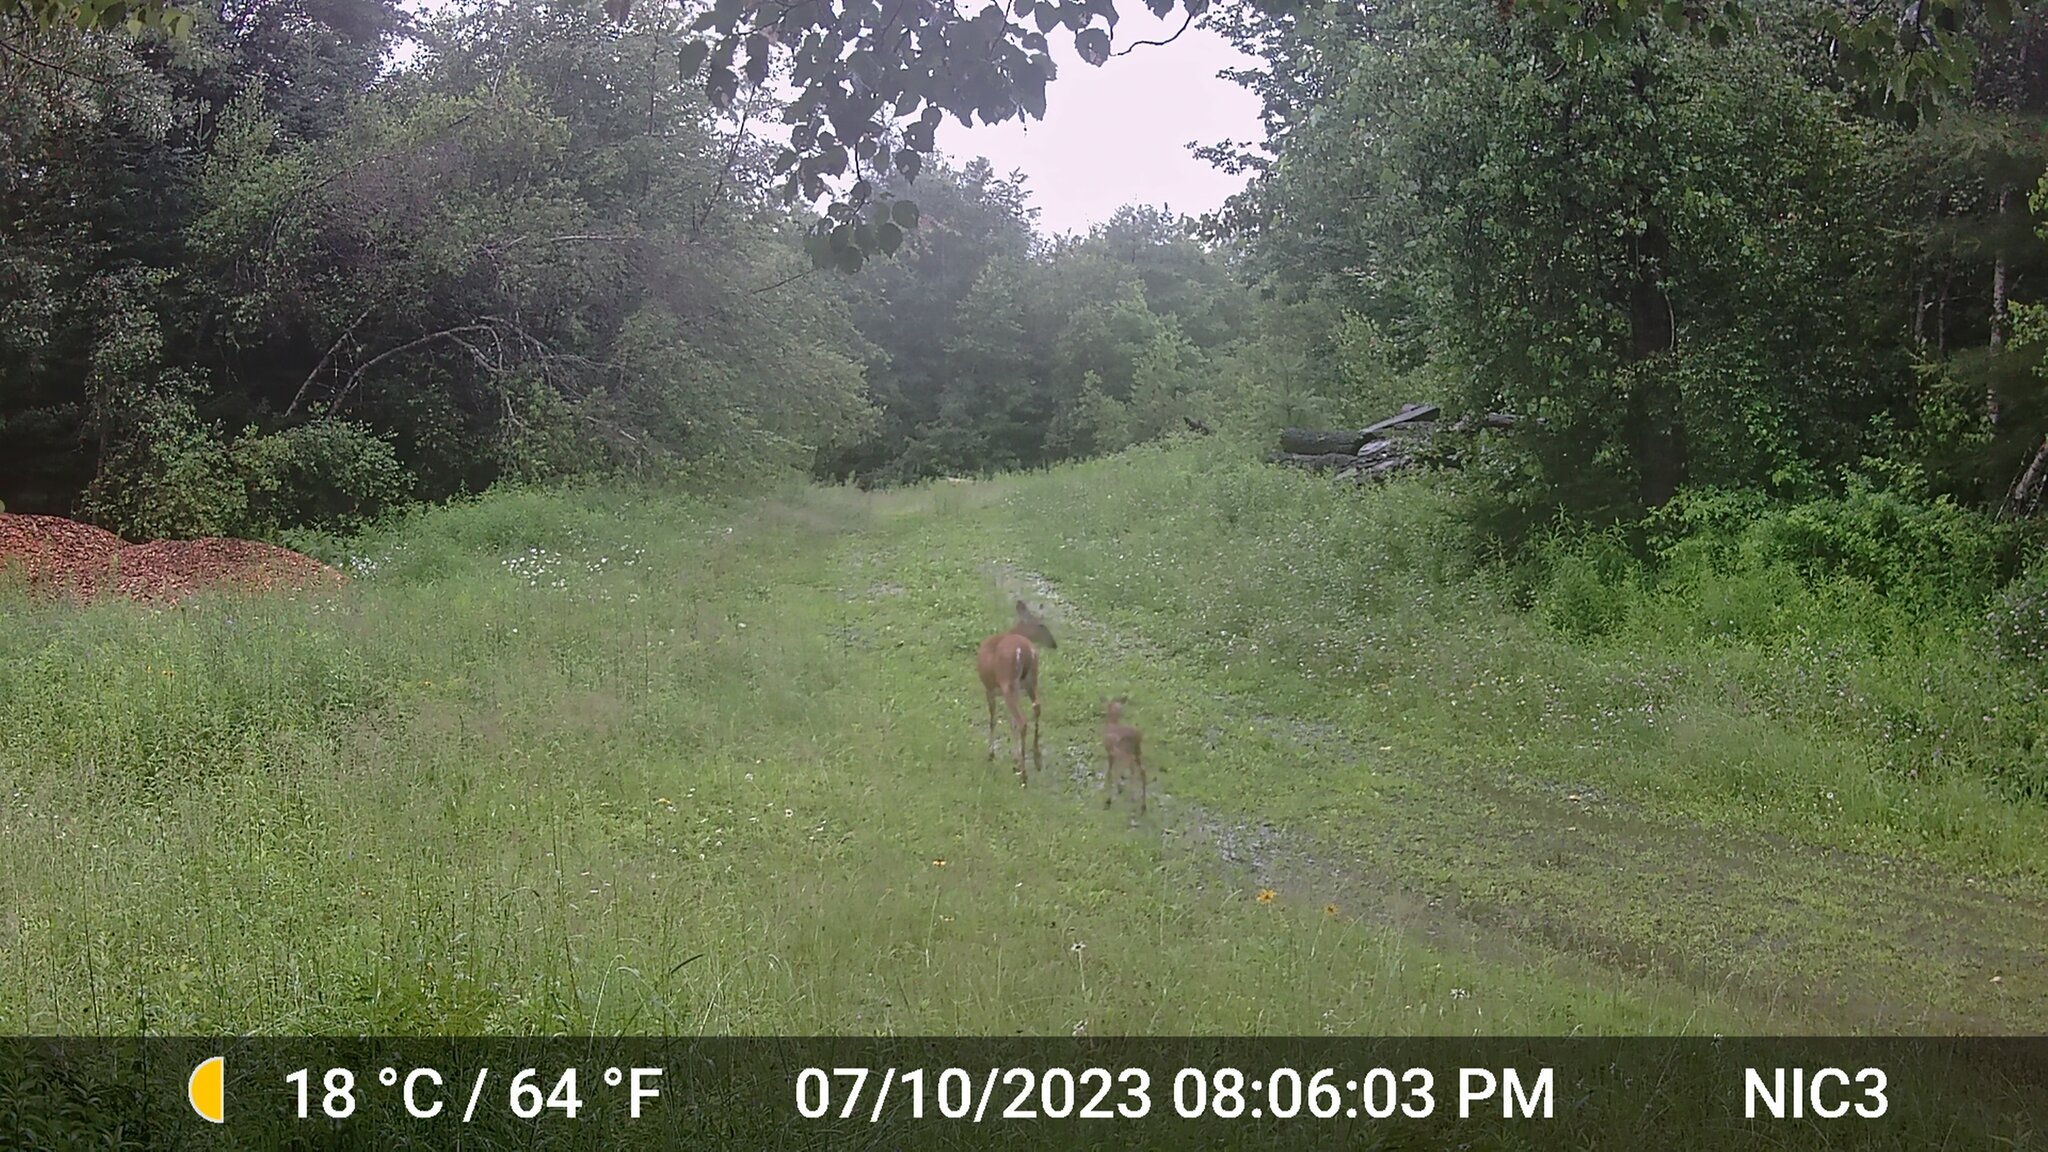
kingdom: Animalia
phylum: Chordata
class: Mammalia
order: Artiodactyla
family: Cervidae
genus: Odocoileus
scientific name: Odocoileus virginianus
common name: White-tailed deer
